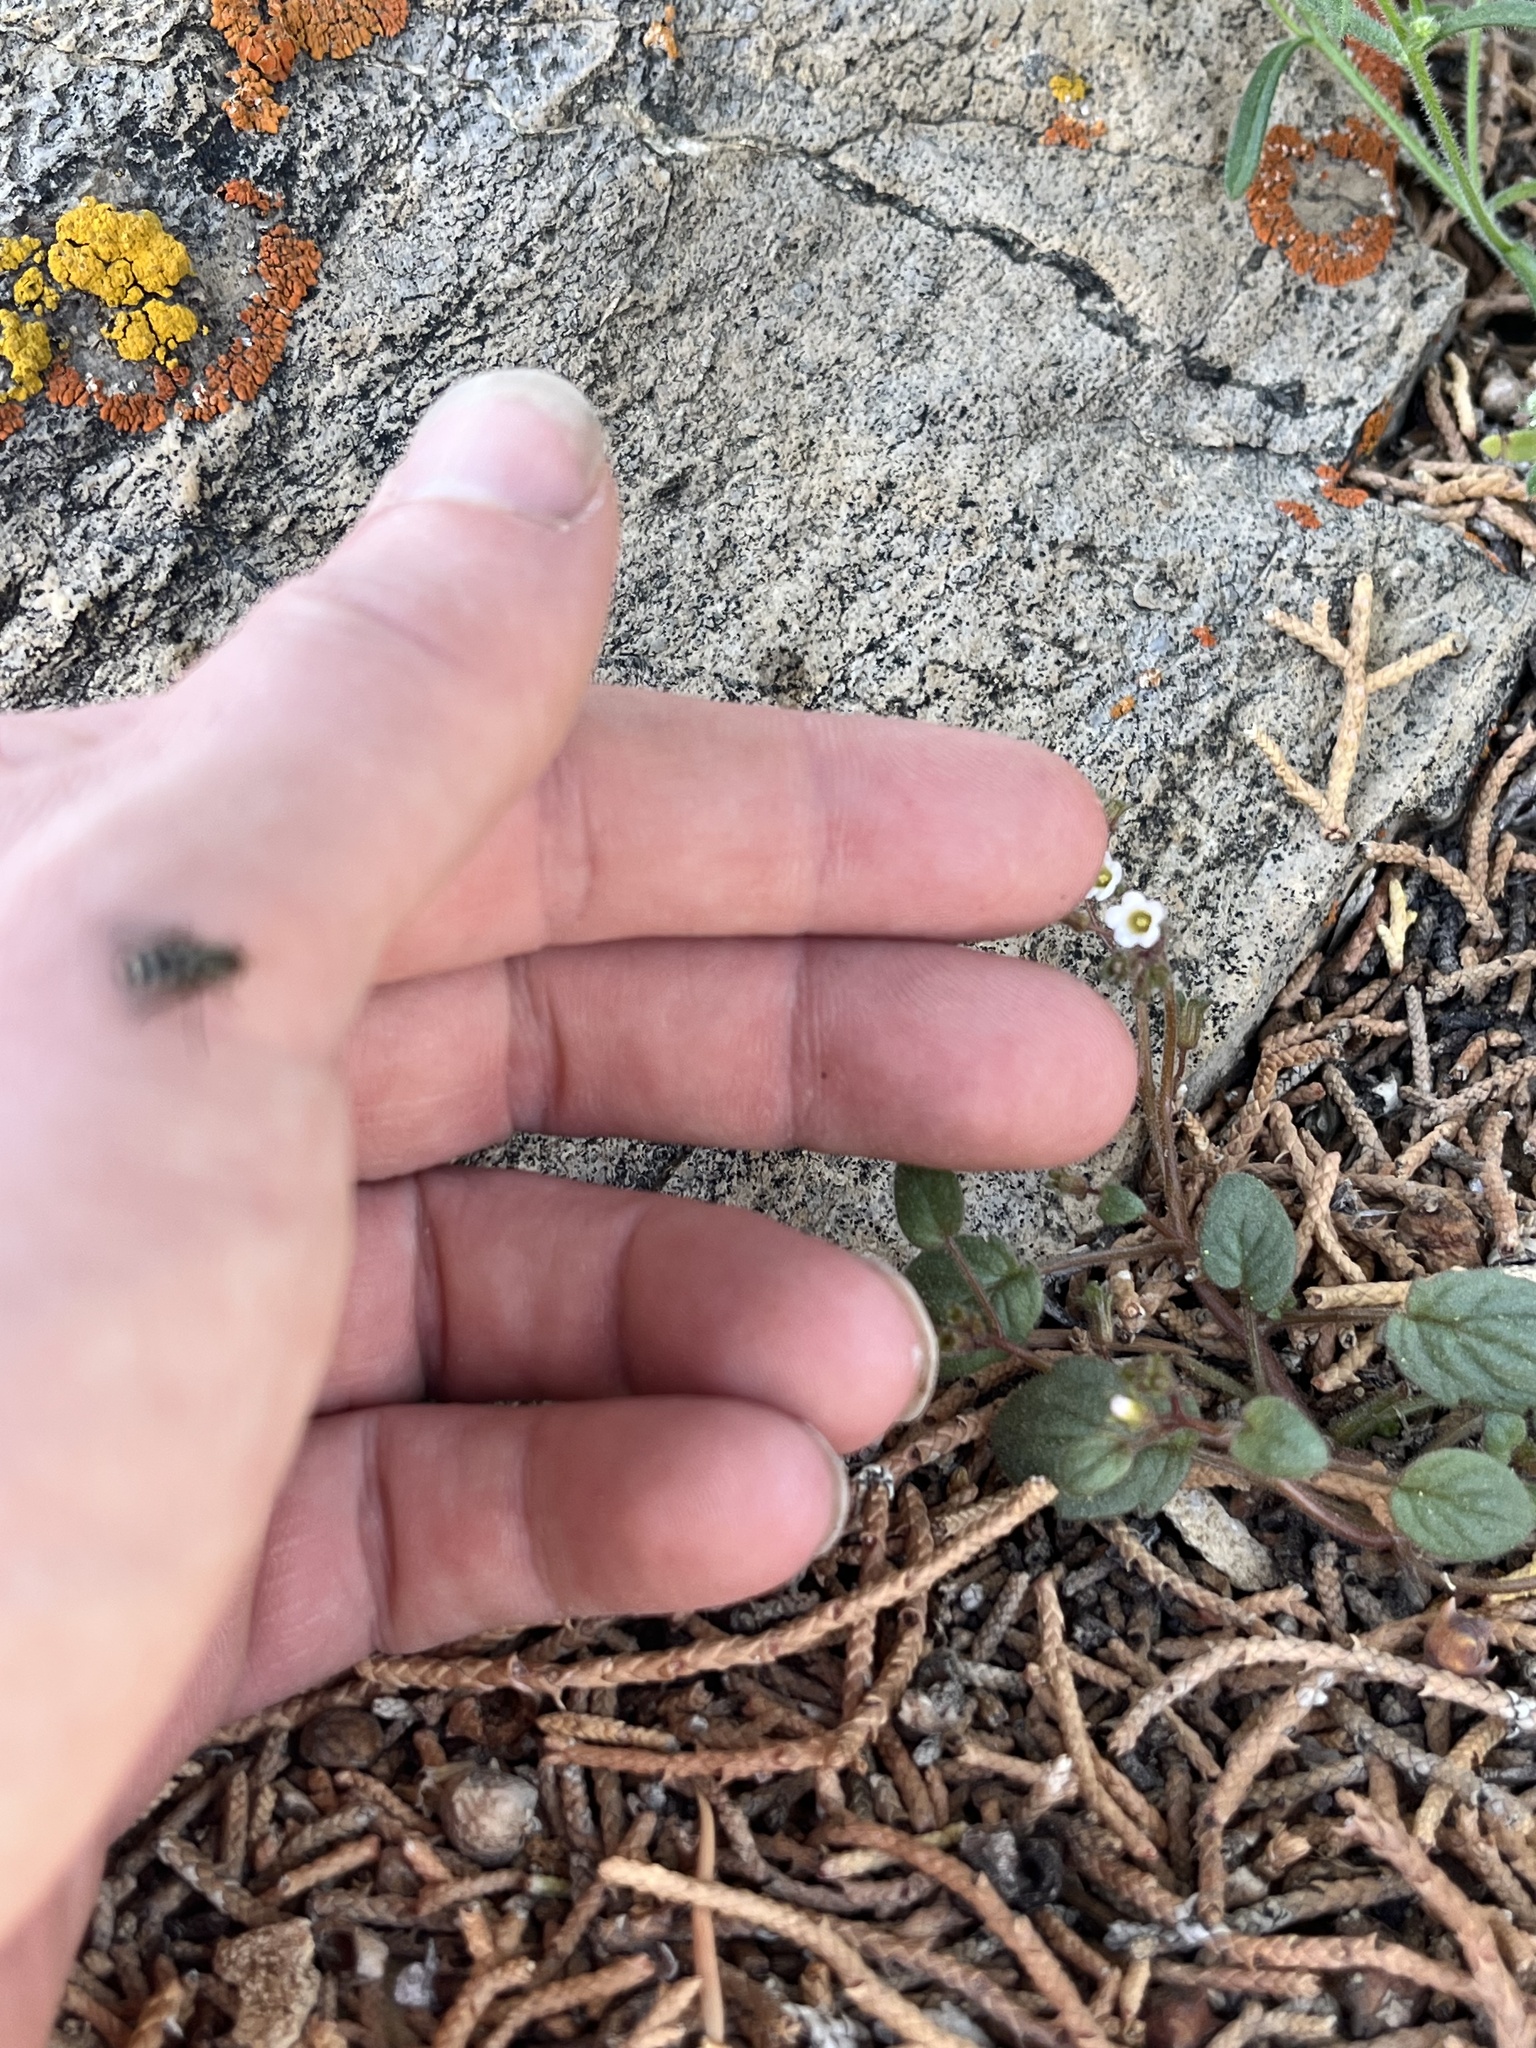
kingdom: Plantae
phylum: Tracheophyta
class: Magnoliopsida
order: Boraginales
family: Hydrophyllaceae
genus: Phacelia
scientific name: Phacelia barnebyana
